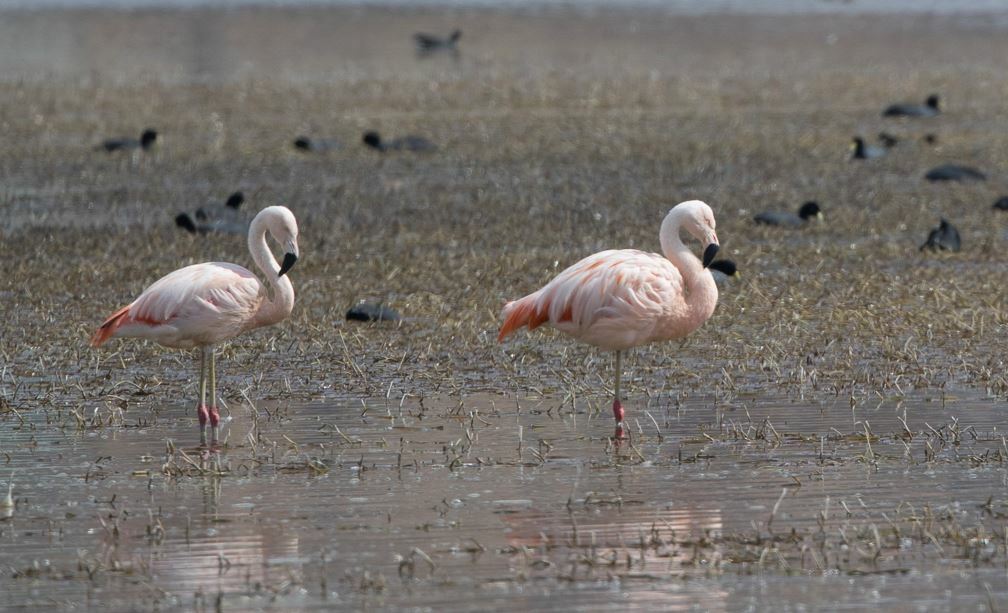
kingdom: Animalia
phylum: Chordata
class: Aves
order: Phoenicopteriformes
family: Phoenicopteridae
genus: Phoenicopterus
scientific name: Phoenicopterus chilensis
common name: Chilean flamingo
